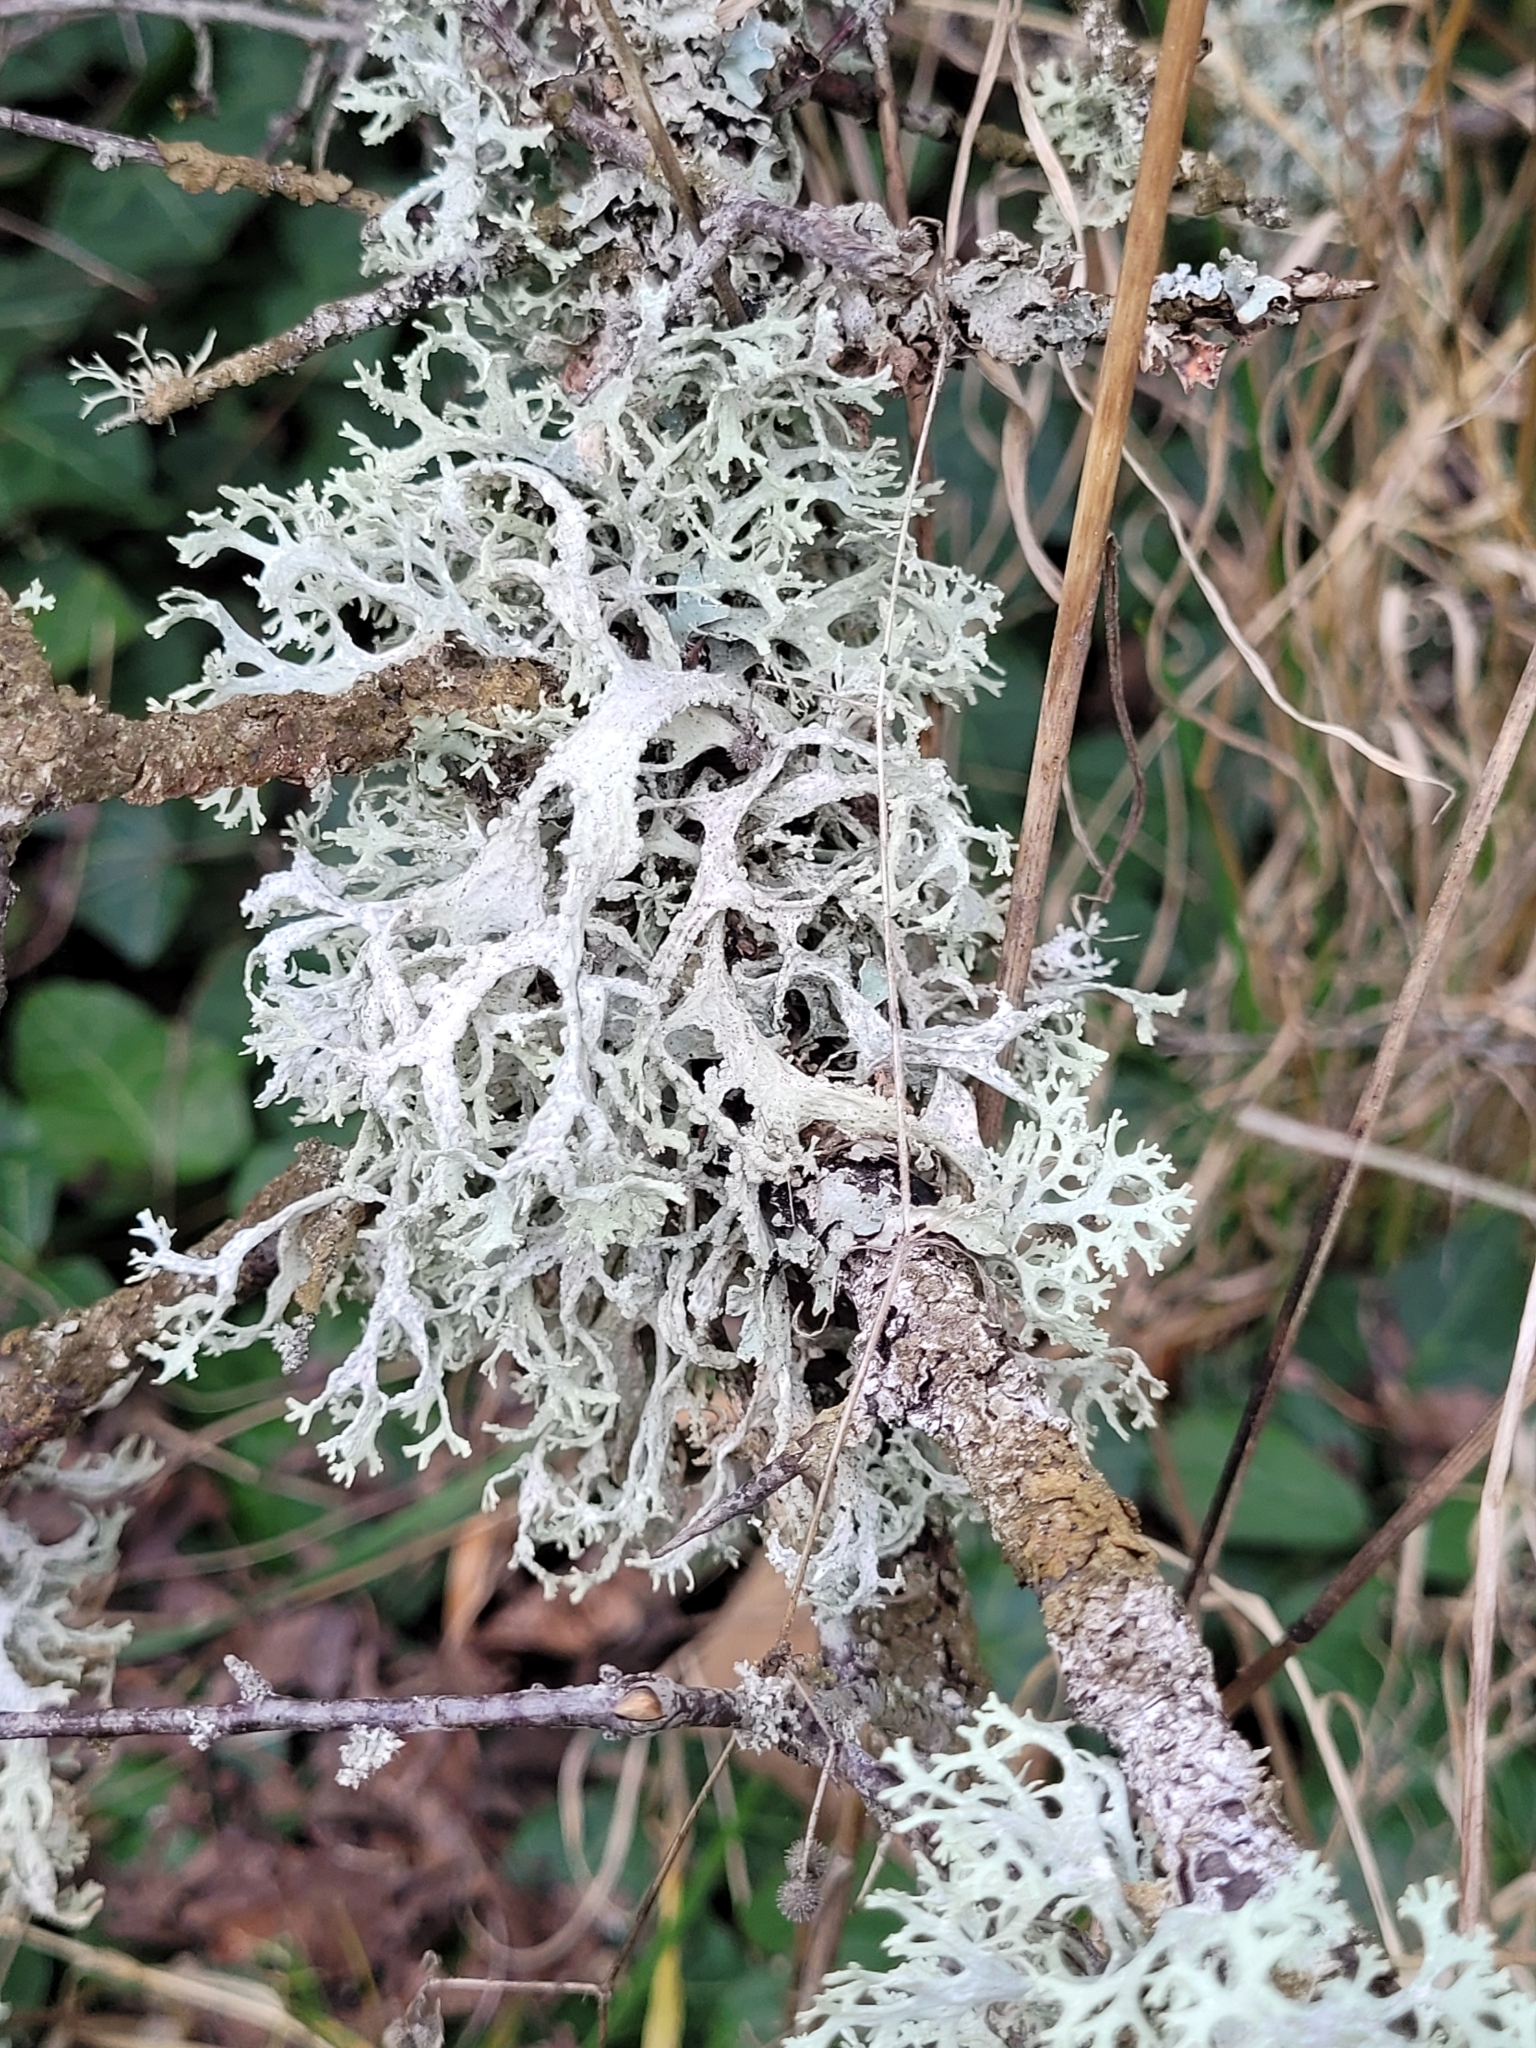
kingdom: Fungi
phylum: Ascomycota
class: Lecanoromycetes
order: Lecanorales
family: Parmeliaceae
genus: Evernia
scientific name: Evernia prunastri
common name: Oak moss
